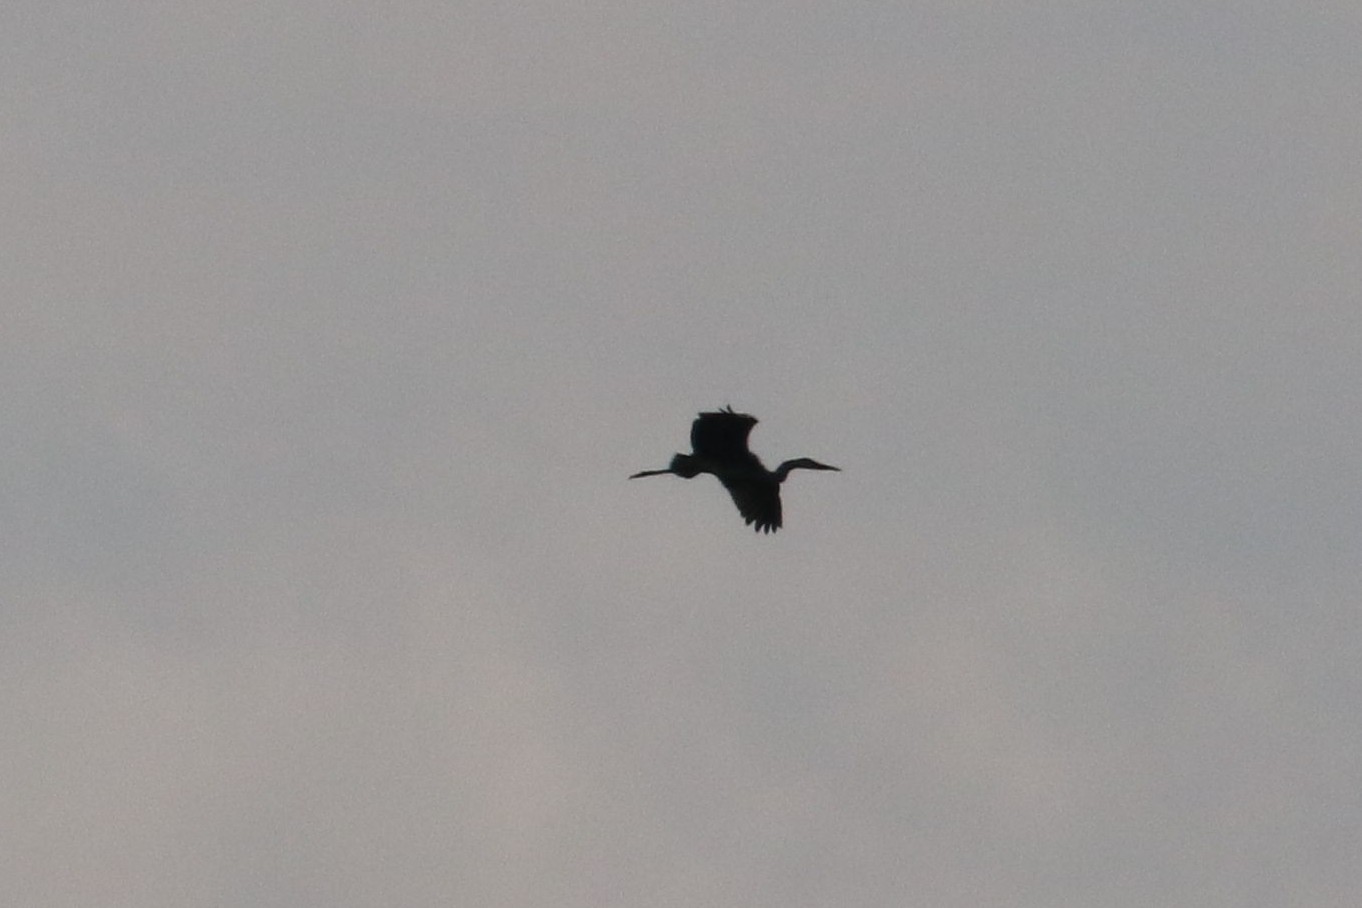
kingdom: Animalia
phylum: Chordata
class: Aves
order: Pelecaniformes
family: Ardeidae
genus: Ardea
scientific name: Ardea cinerea
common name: Grey heron
